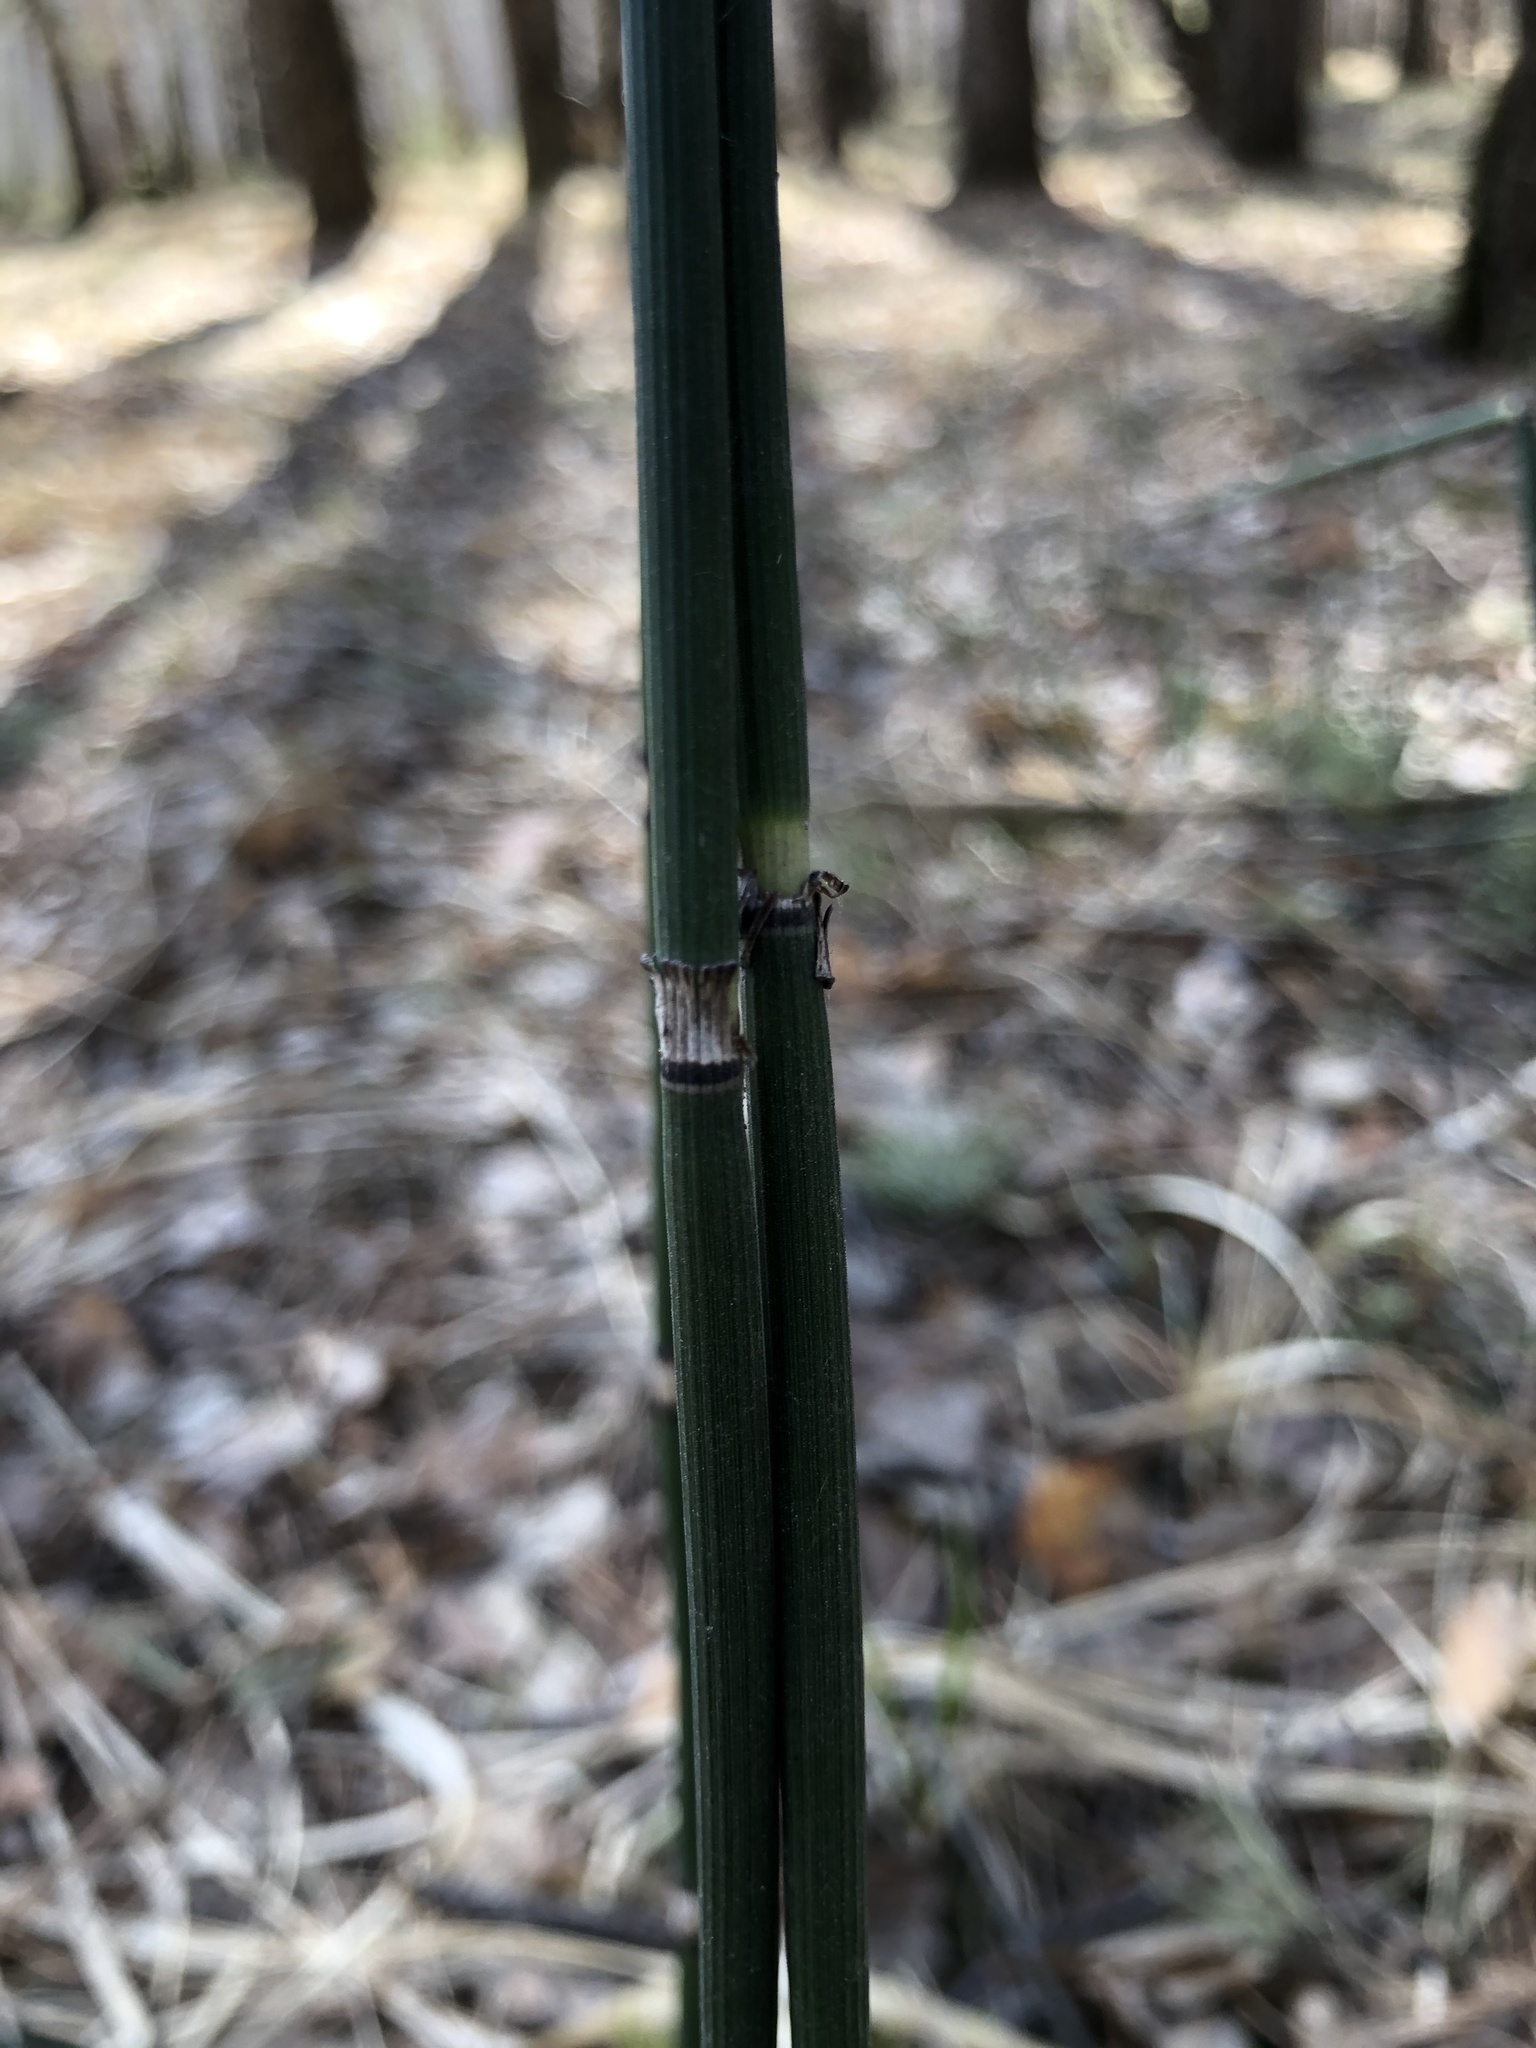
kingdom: Plantae
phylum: Tracheophyta
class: Polypodiopsida
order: Equisetales
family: Equisetaceae
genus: Equisetum
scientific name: Equisetum hyemale
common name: Rough horsetail
